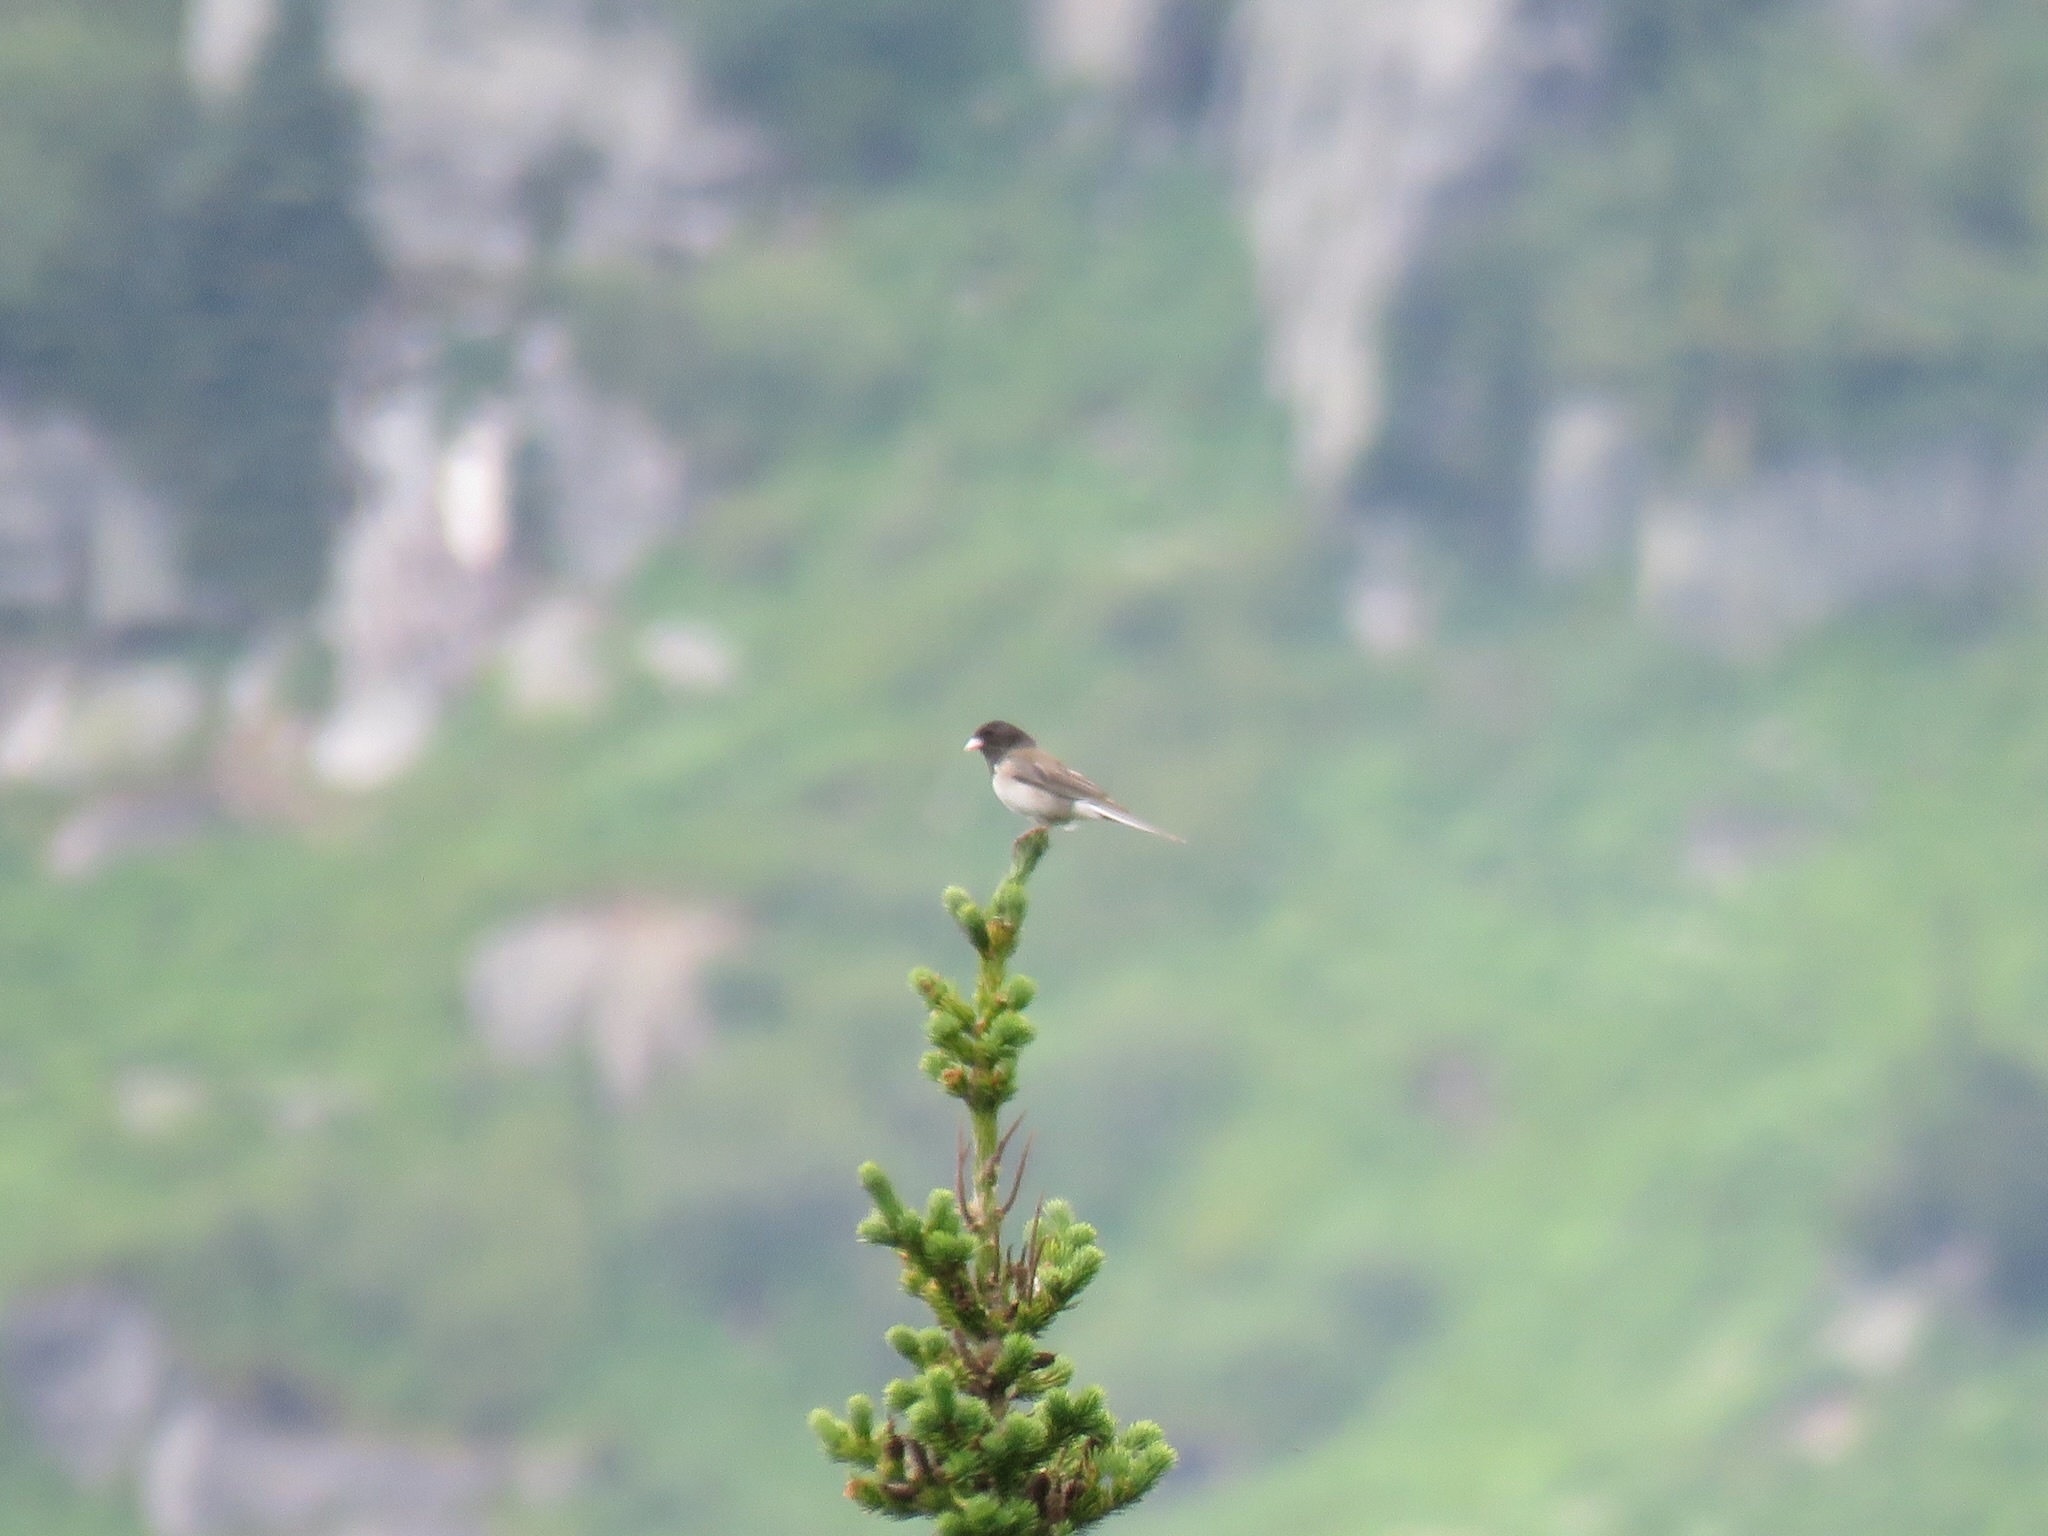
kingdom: Animalia
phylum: Chordata
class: Aves
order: Passeriformes
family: Passerellidae
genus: Junco
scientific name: Junco hyemalis
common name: Dark-eyed junco
